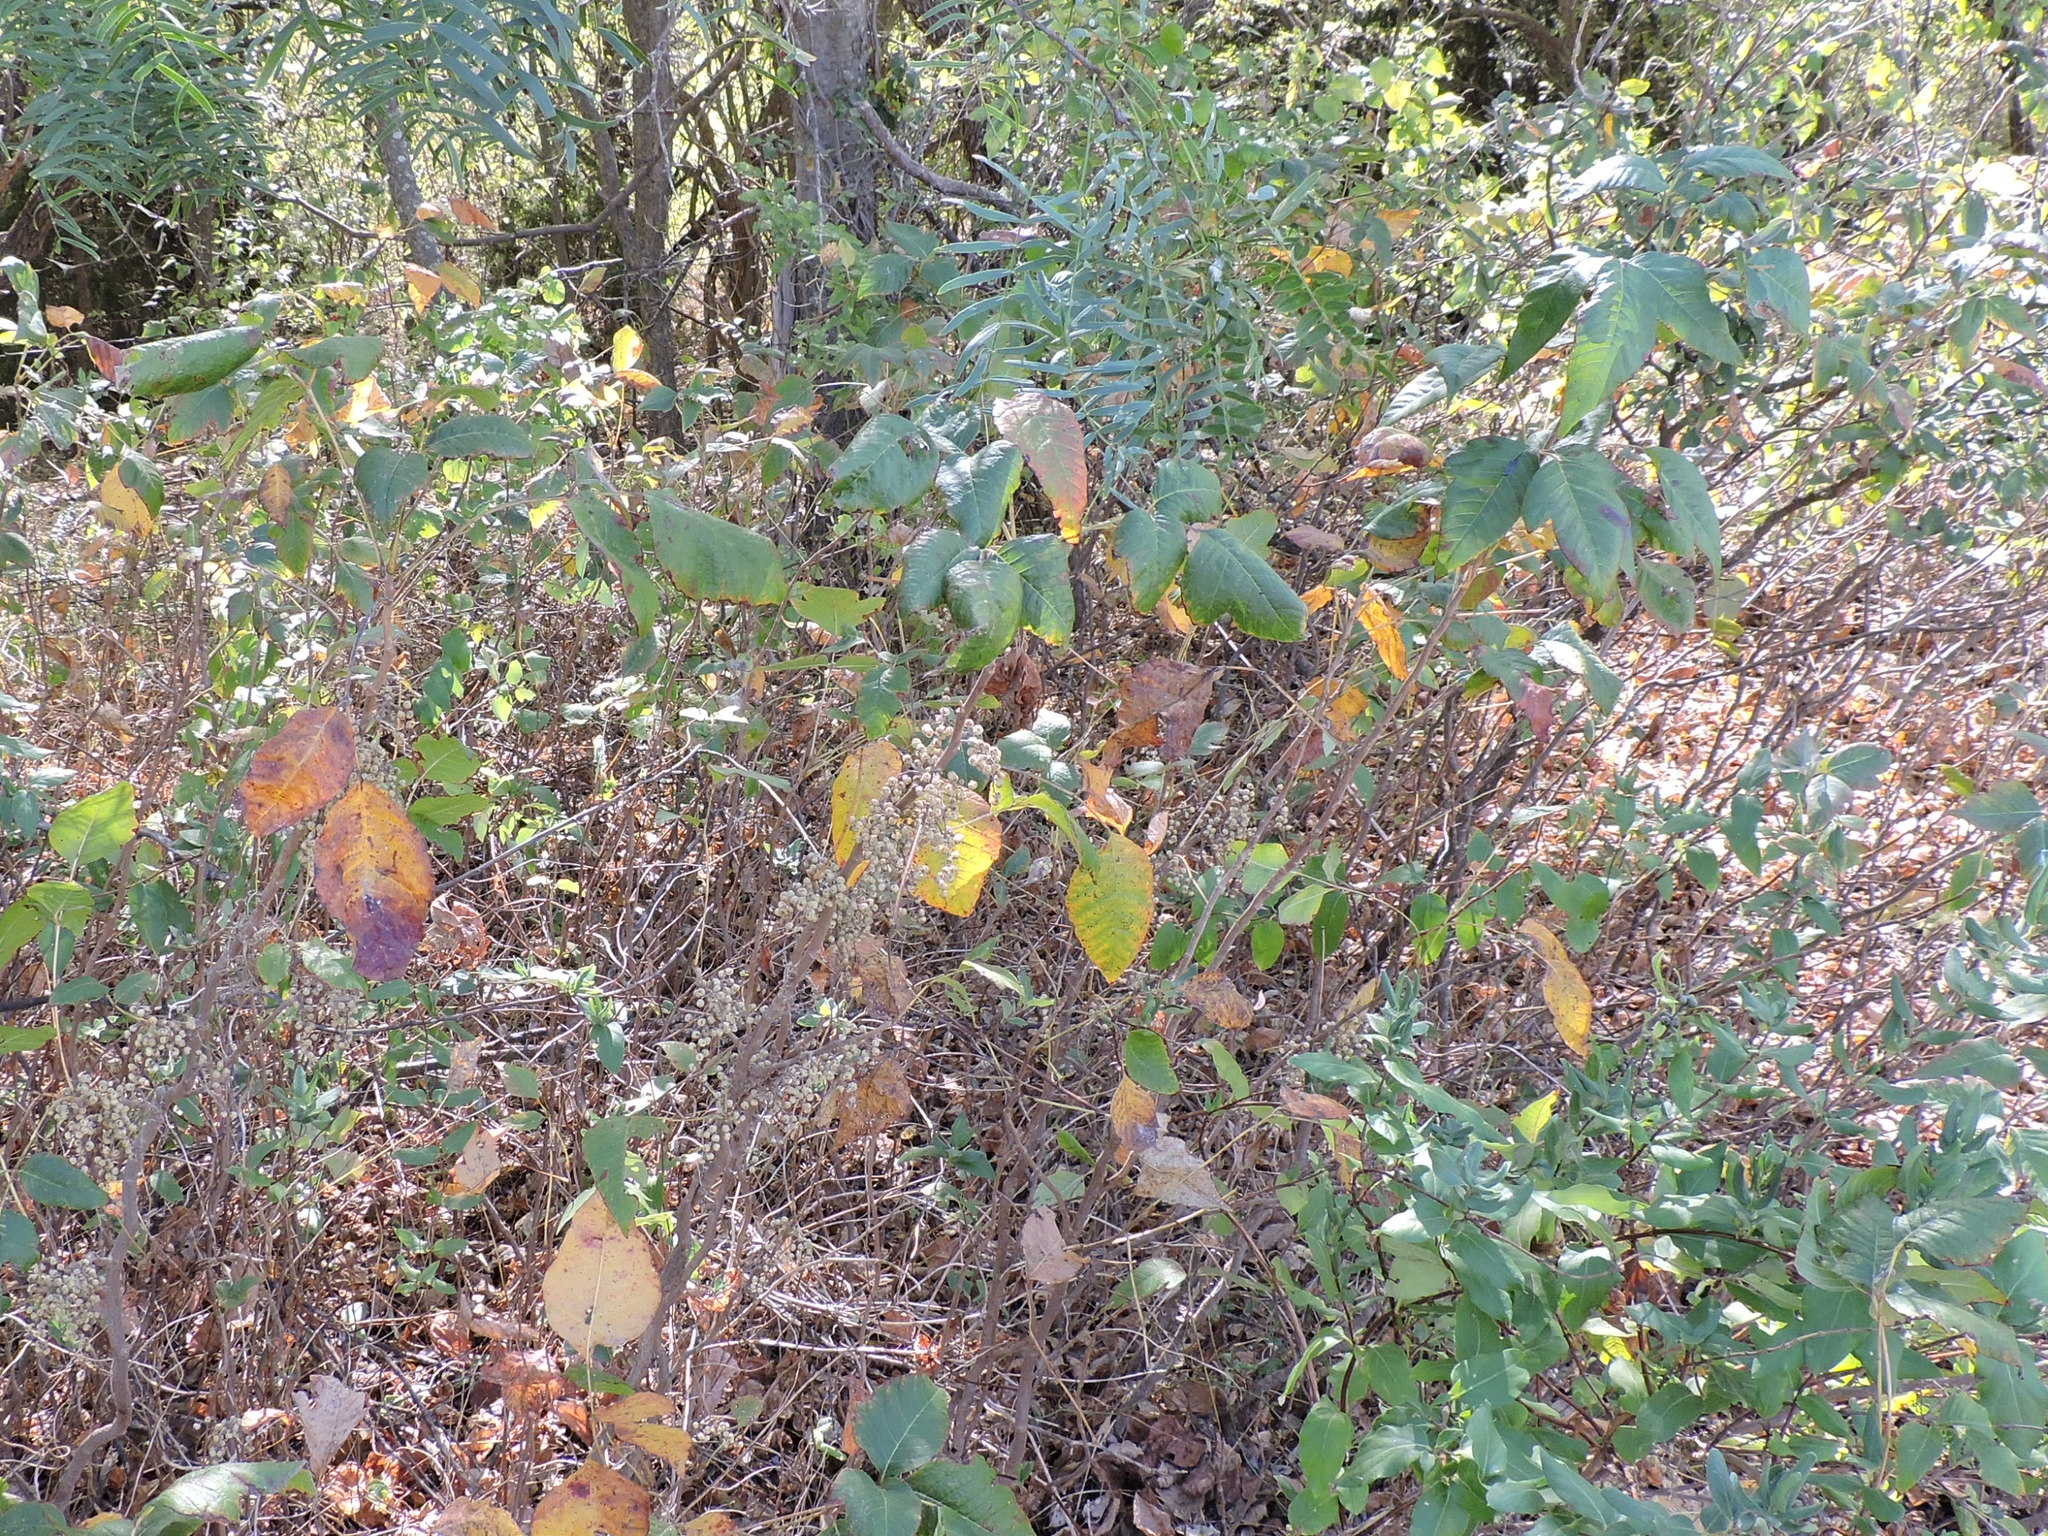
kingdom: Plantae
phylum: Tracheophyta
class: Magnoliopsida
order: Sapindales
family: Anacardiaceae
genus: Toxicodendron
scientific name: Toxicodendron radicans
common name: Poison ivy
